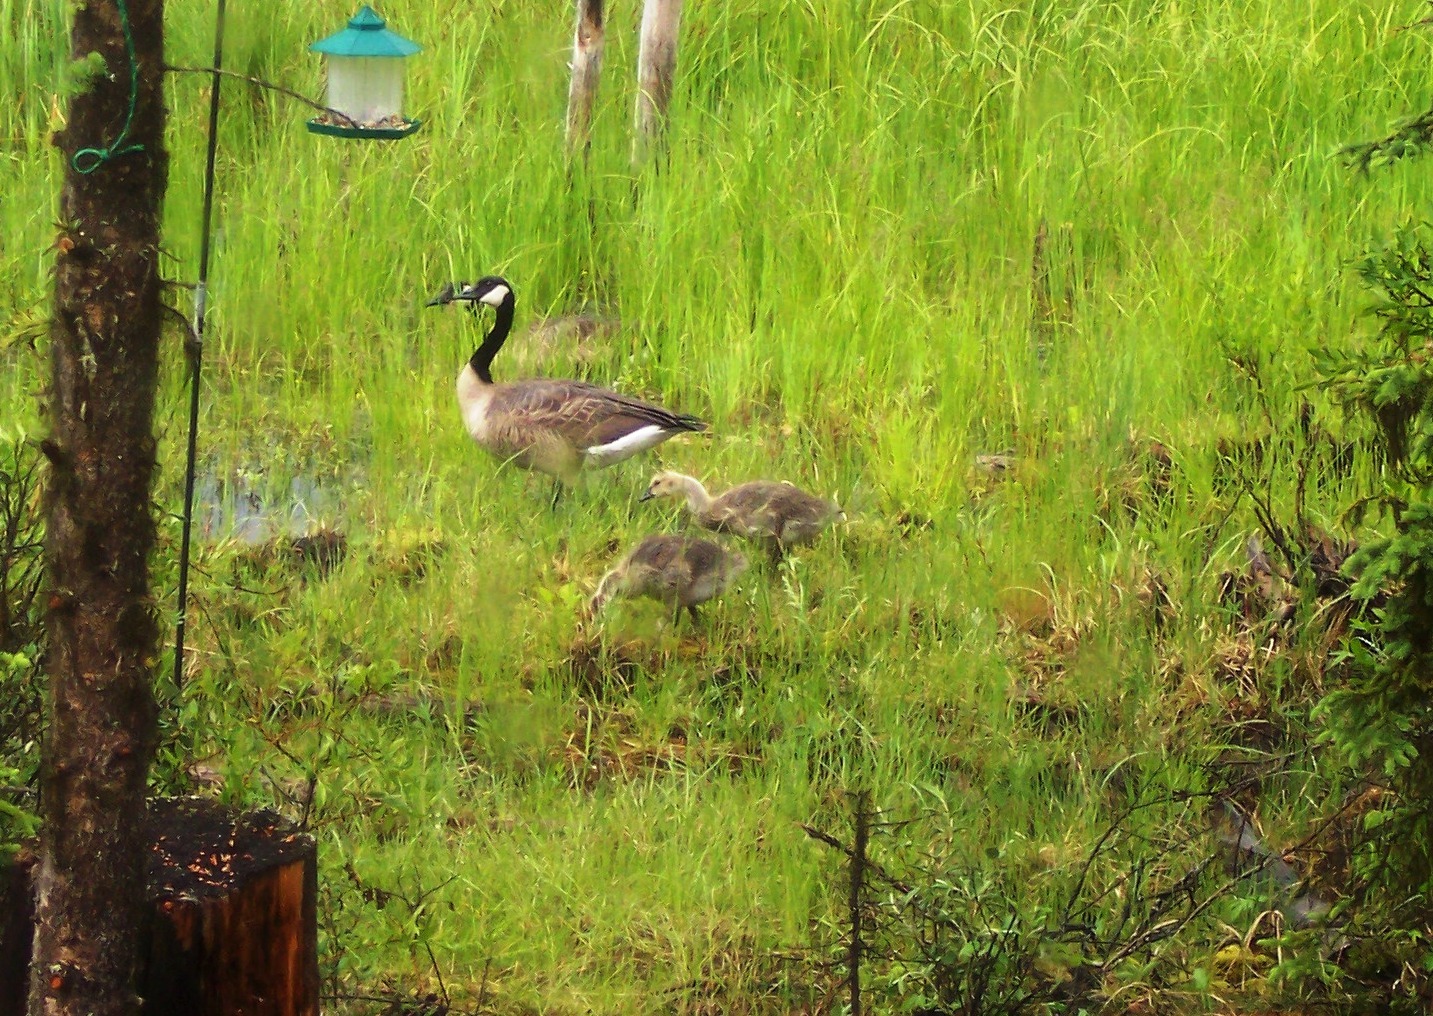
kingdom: Animalia
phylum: Chordata
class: Aves
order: Anseriformes
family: Anatidae
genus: Branta
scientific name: Branta canadensis
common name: Canada goose
